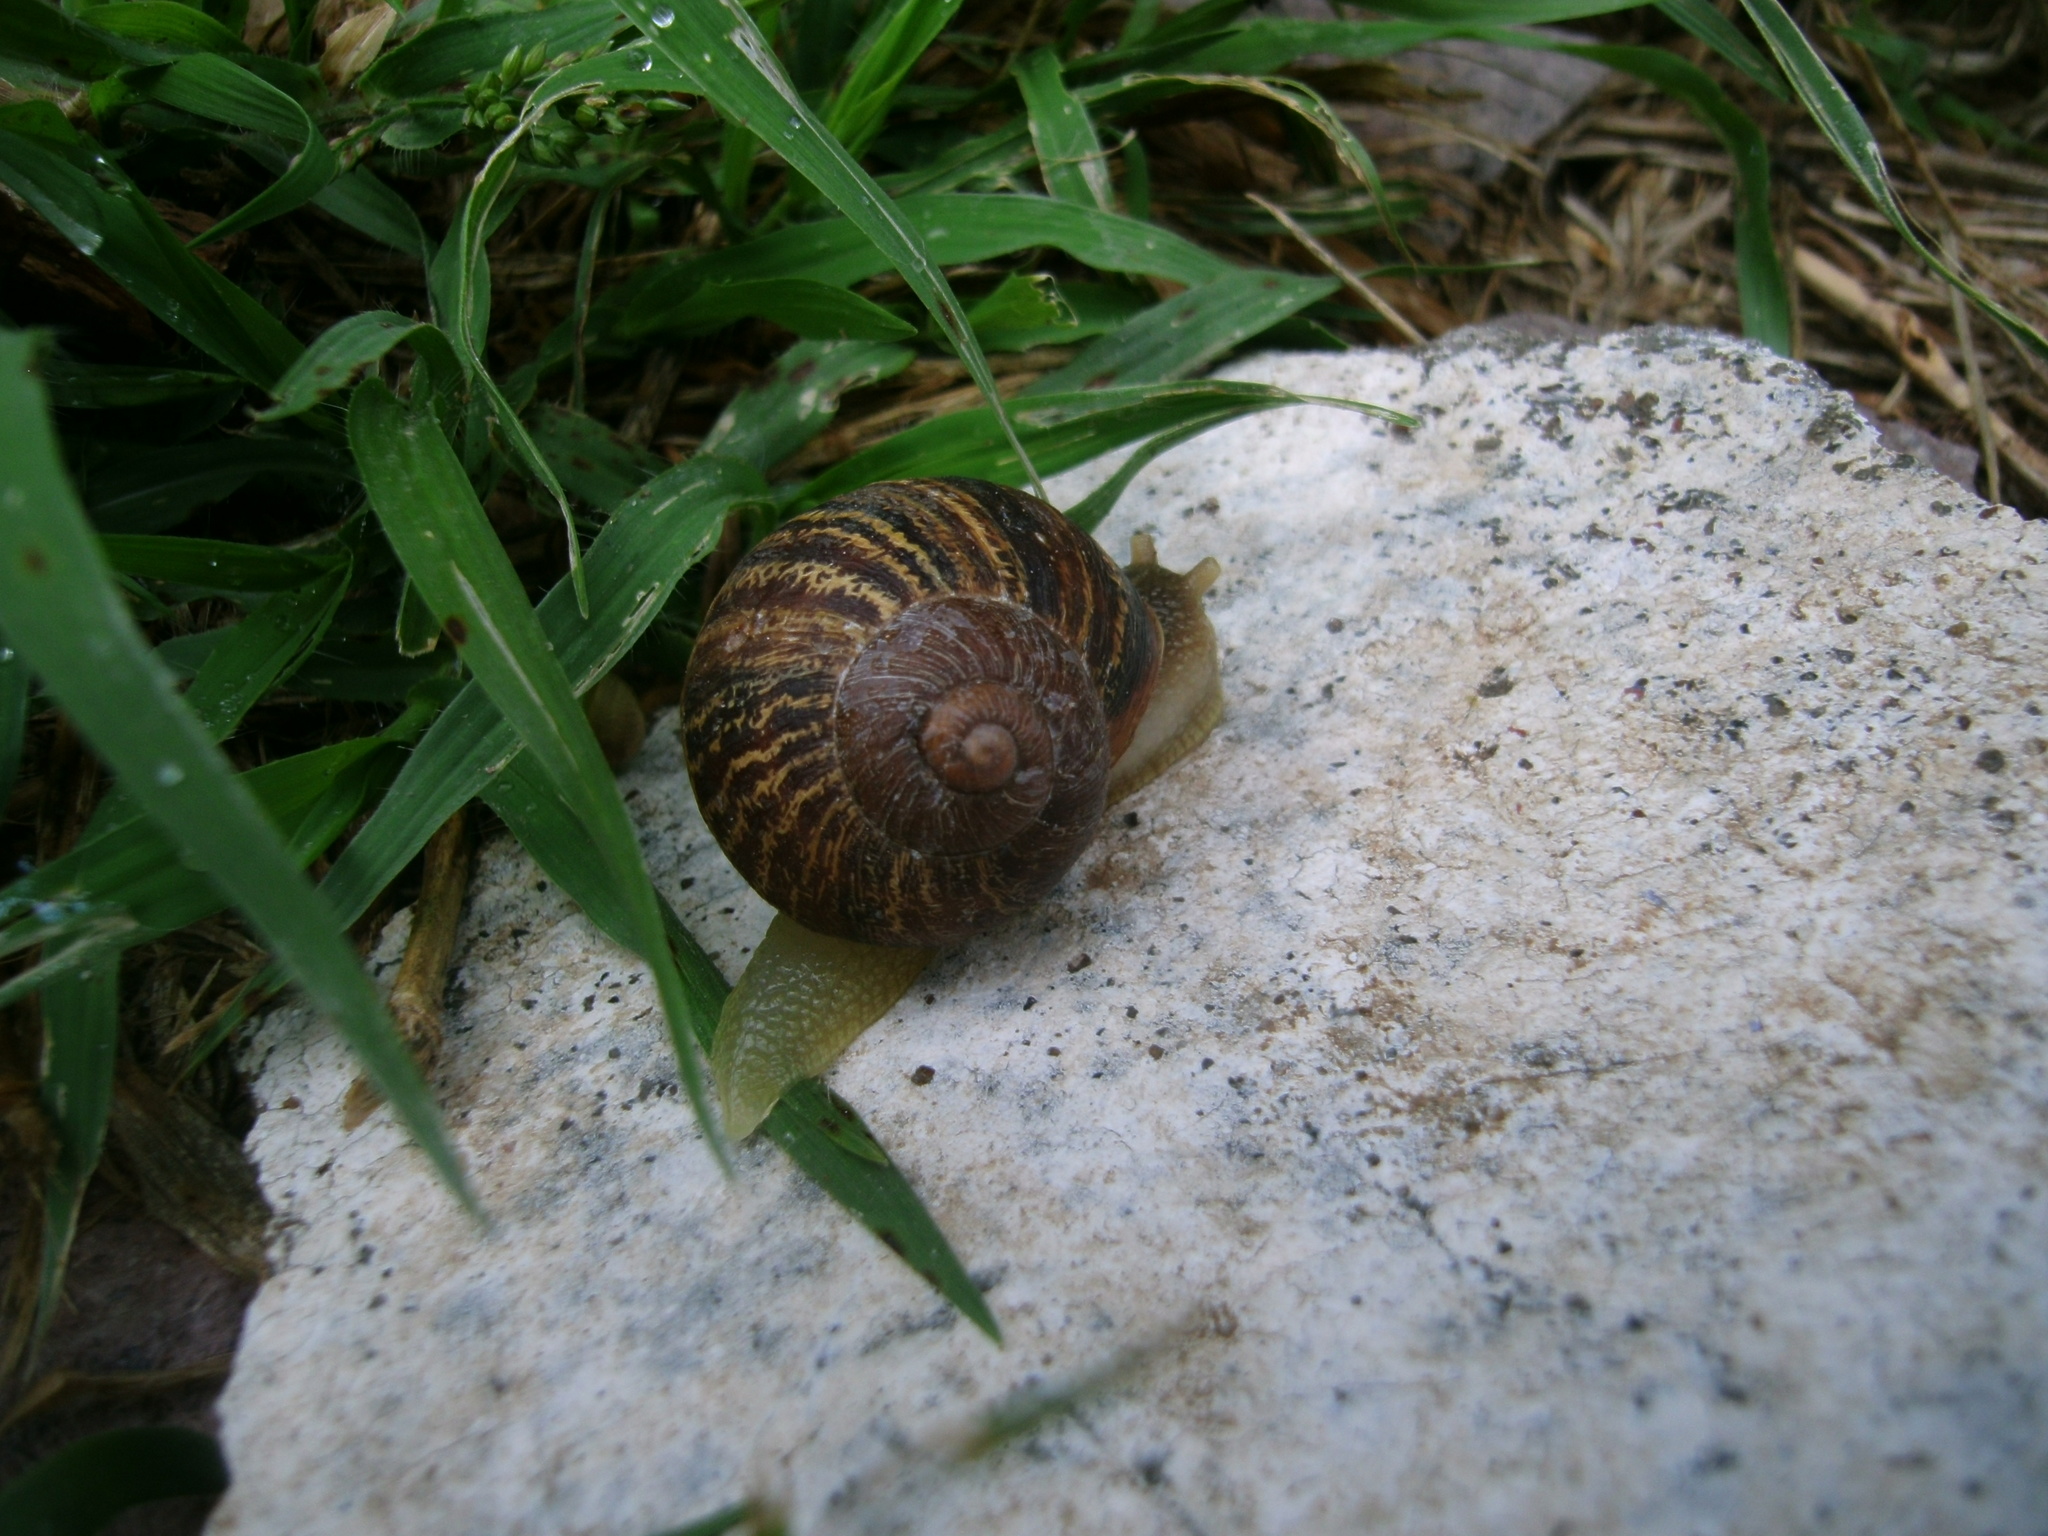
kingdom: Animalia
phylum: Mollusca
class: Gastropoda
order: Stylommatophora
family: Helicidae
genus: Cornu
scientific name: Cornu aspersum
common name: Brown garden snail
